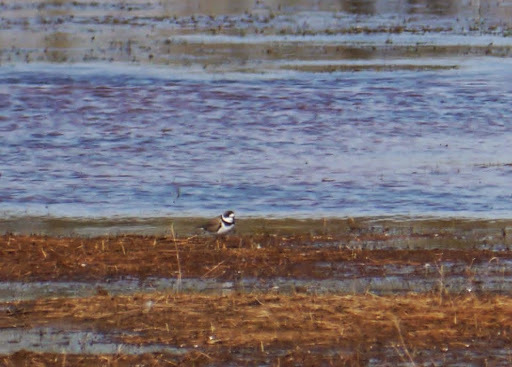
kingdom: Animalia
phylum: Chordata
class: Aves
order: Charadriiformes
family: Charadriidae
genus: Charadrius
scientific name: Charadrius semipalmatus
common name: Semipalmated plover
